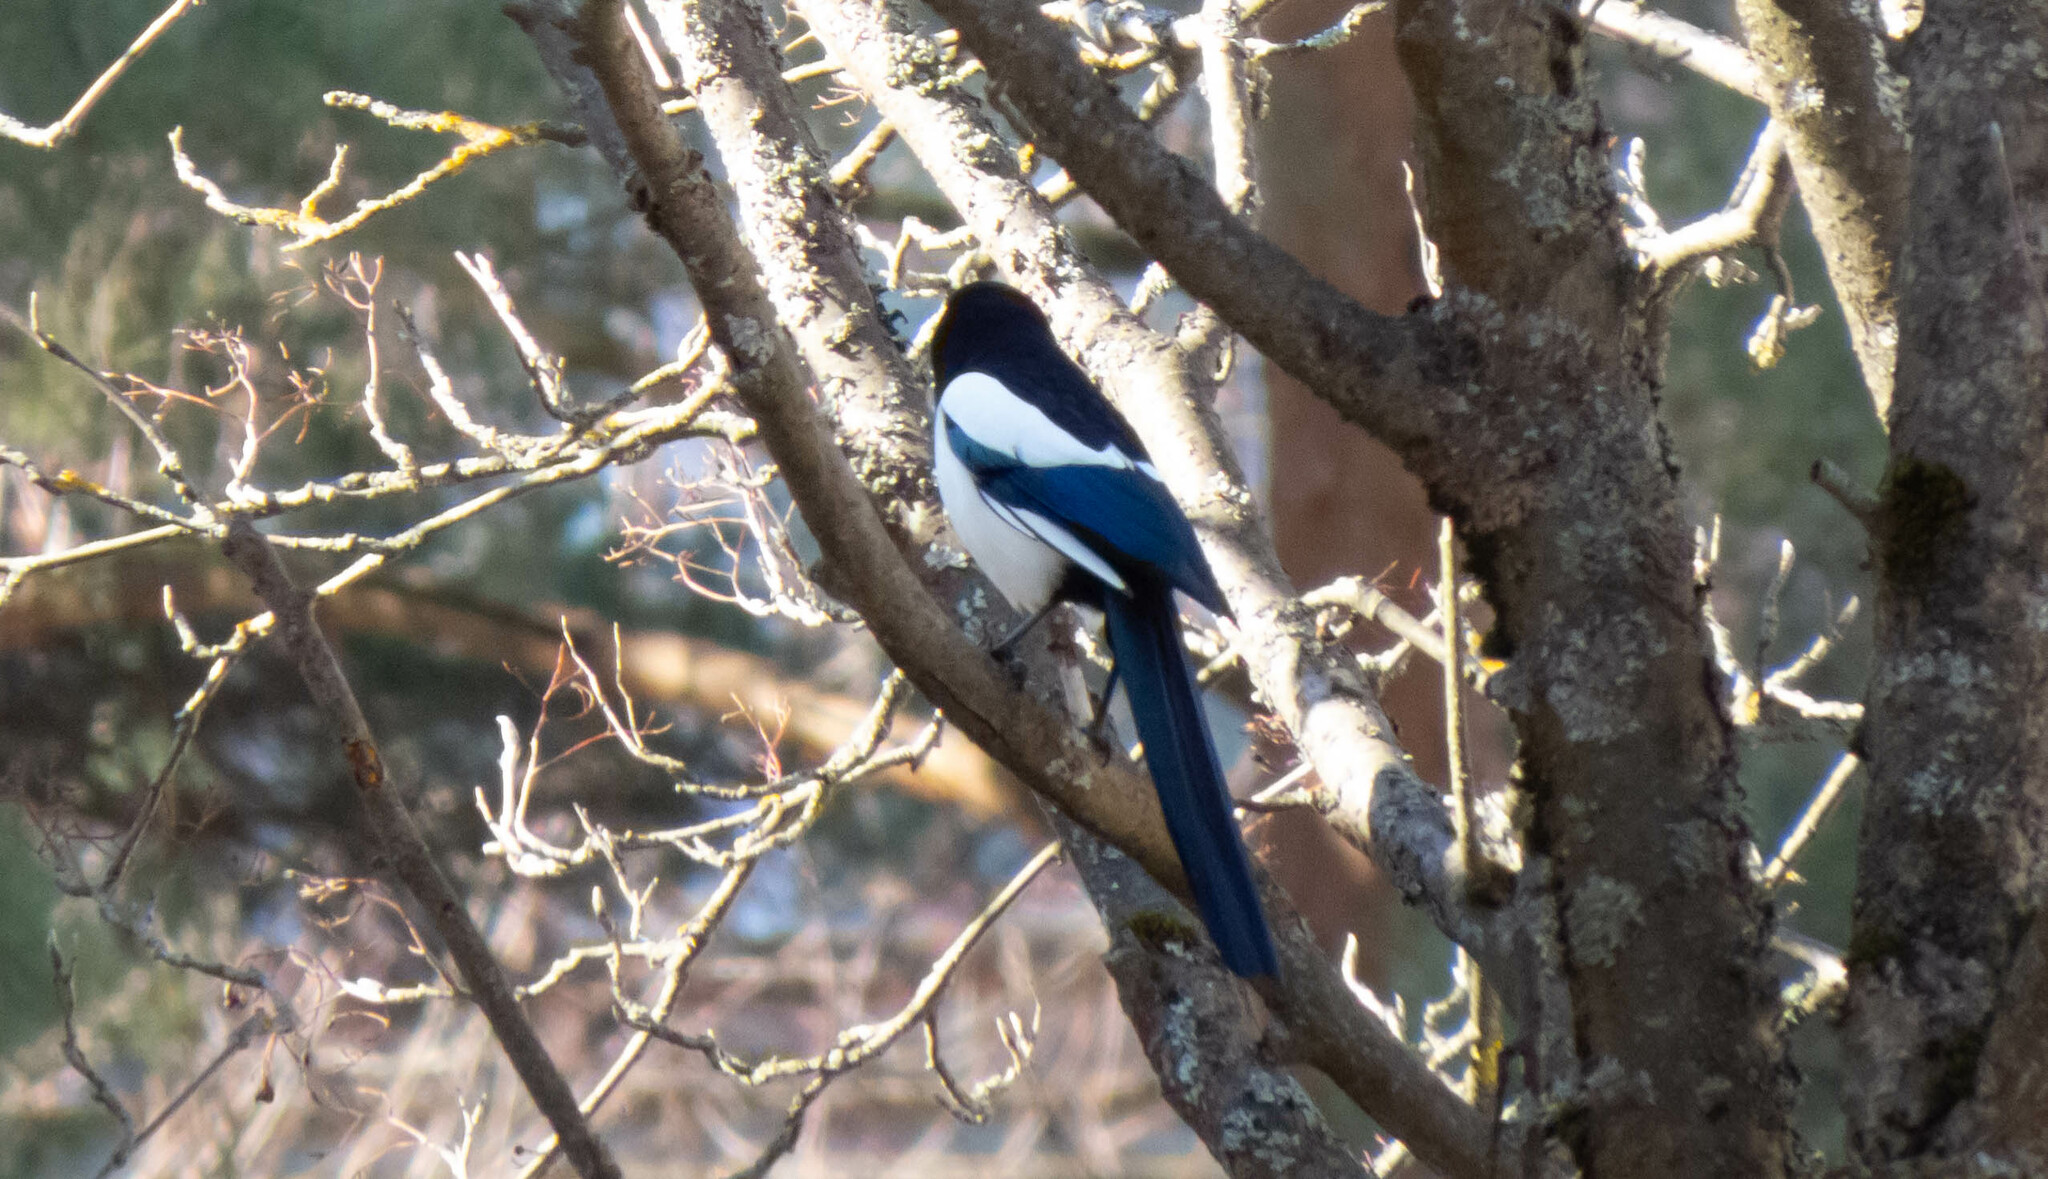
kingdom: Animalia
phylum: Chordata
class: Aves
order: Passeriformes
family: Corvidae
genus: Pica
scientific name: Pica pica
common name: Eurasian magpie
